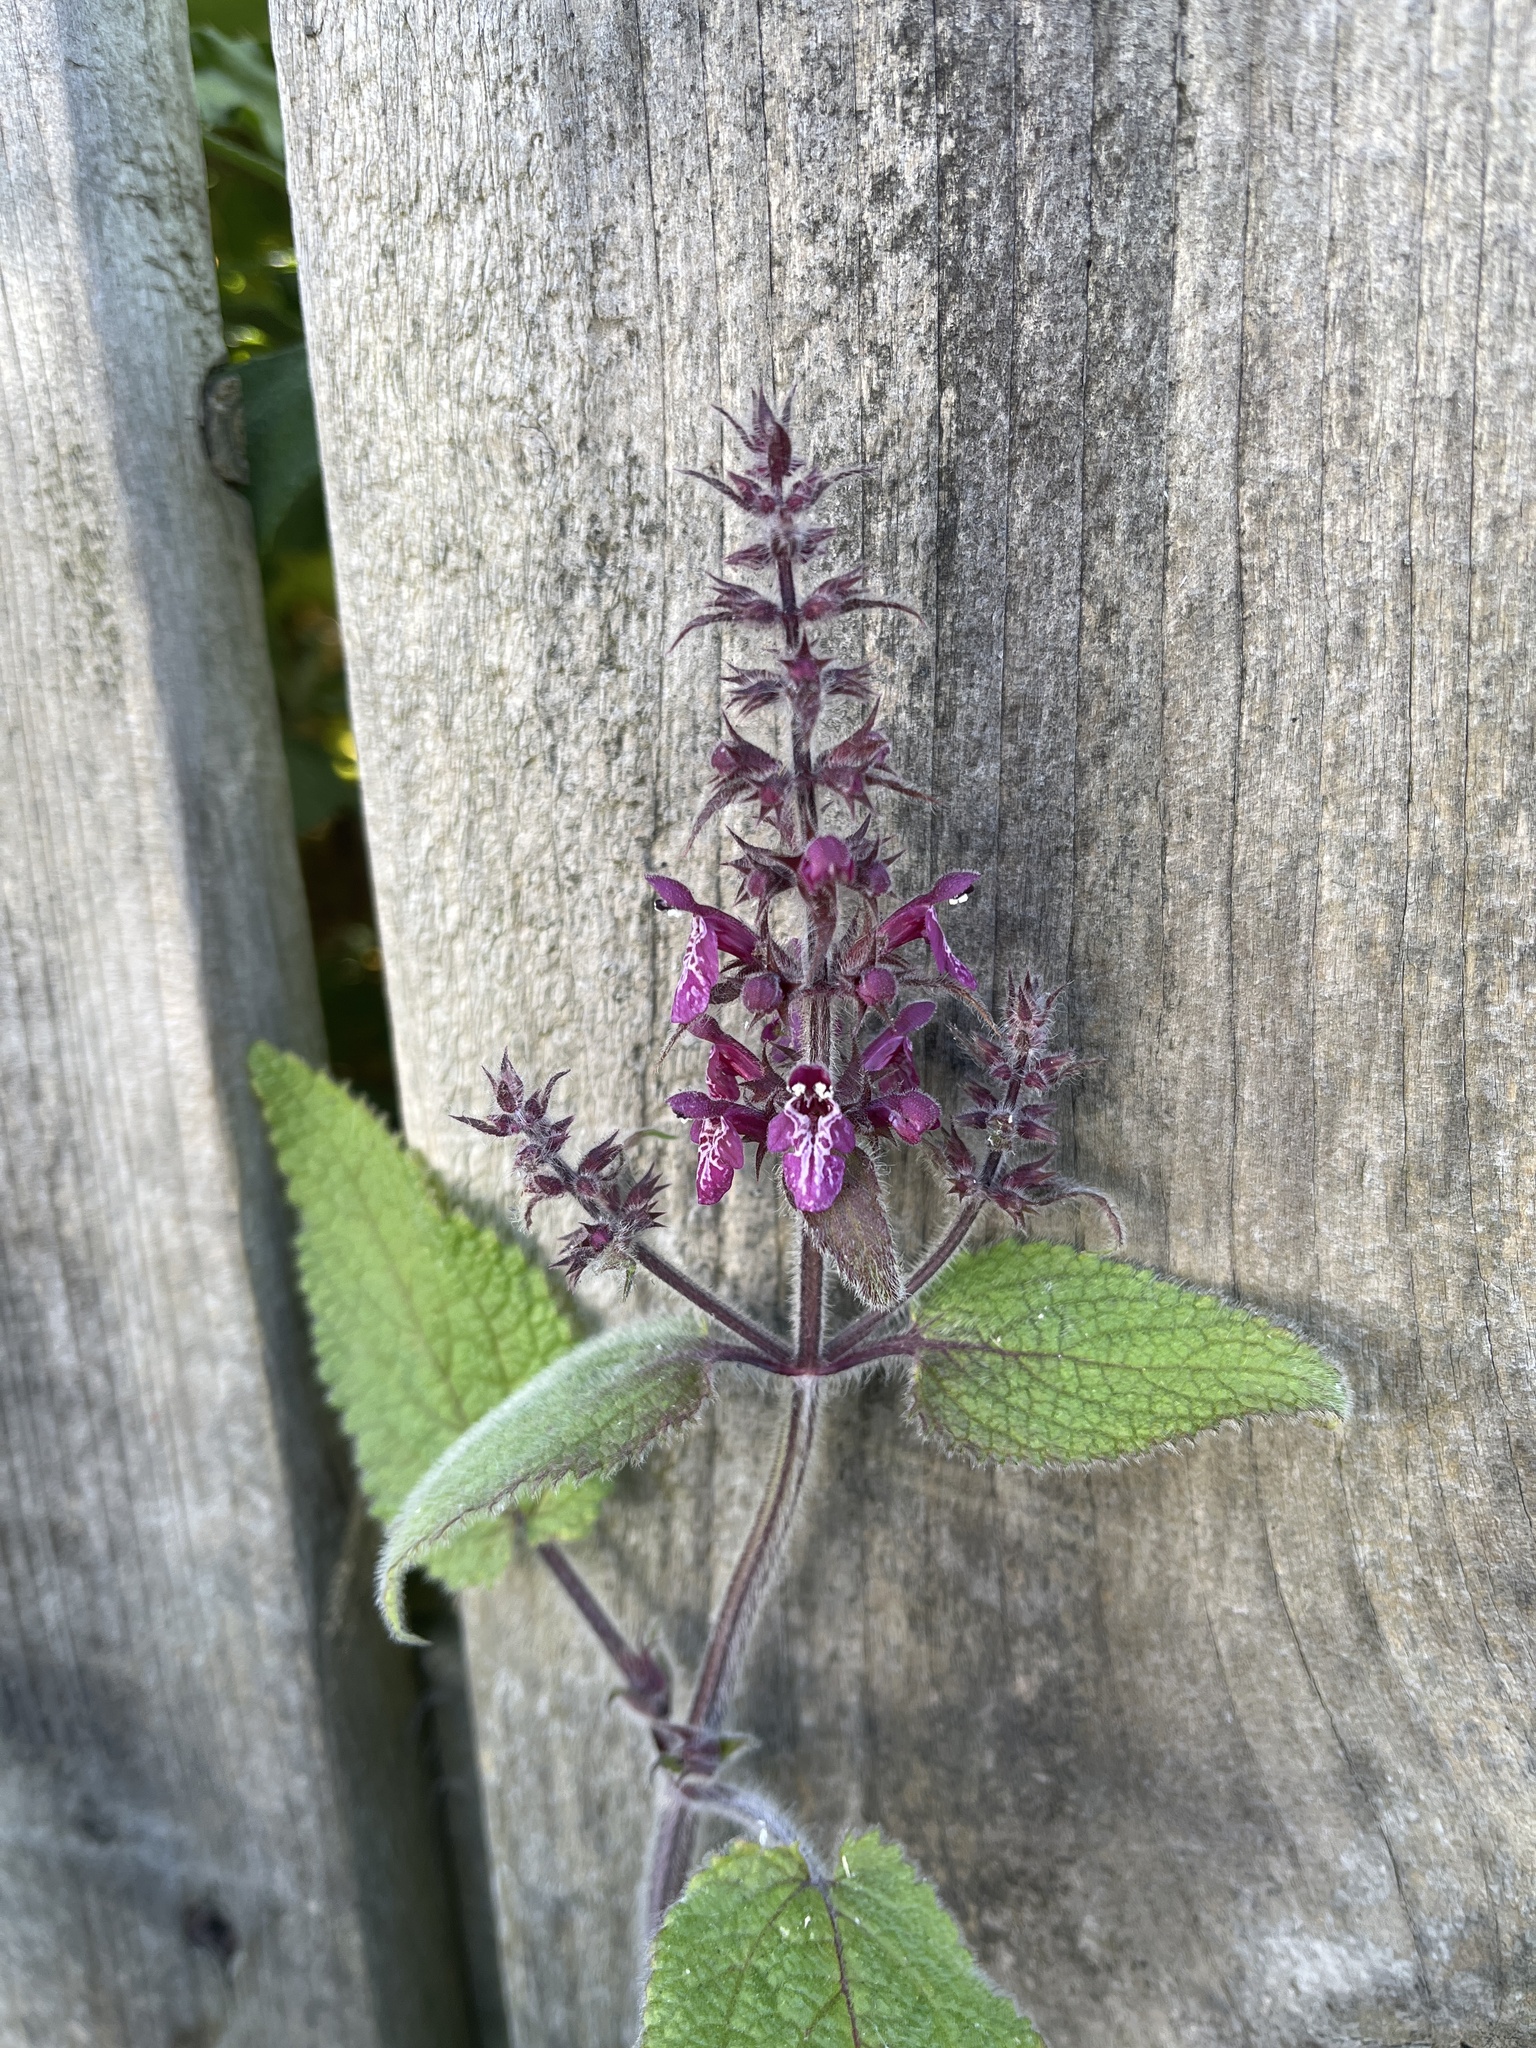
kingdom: Plantae
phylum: Tracheophyta
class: Magnoliopsida
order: Lamiales
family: Lamiaceae
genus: Stachys
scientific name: Stachys sylvatica
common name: Hedge woundwort
